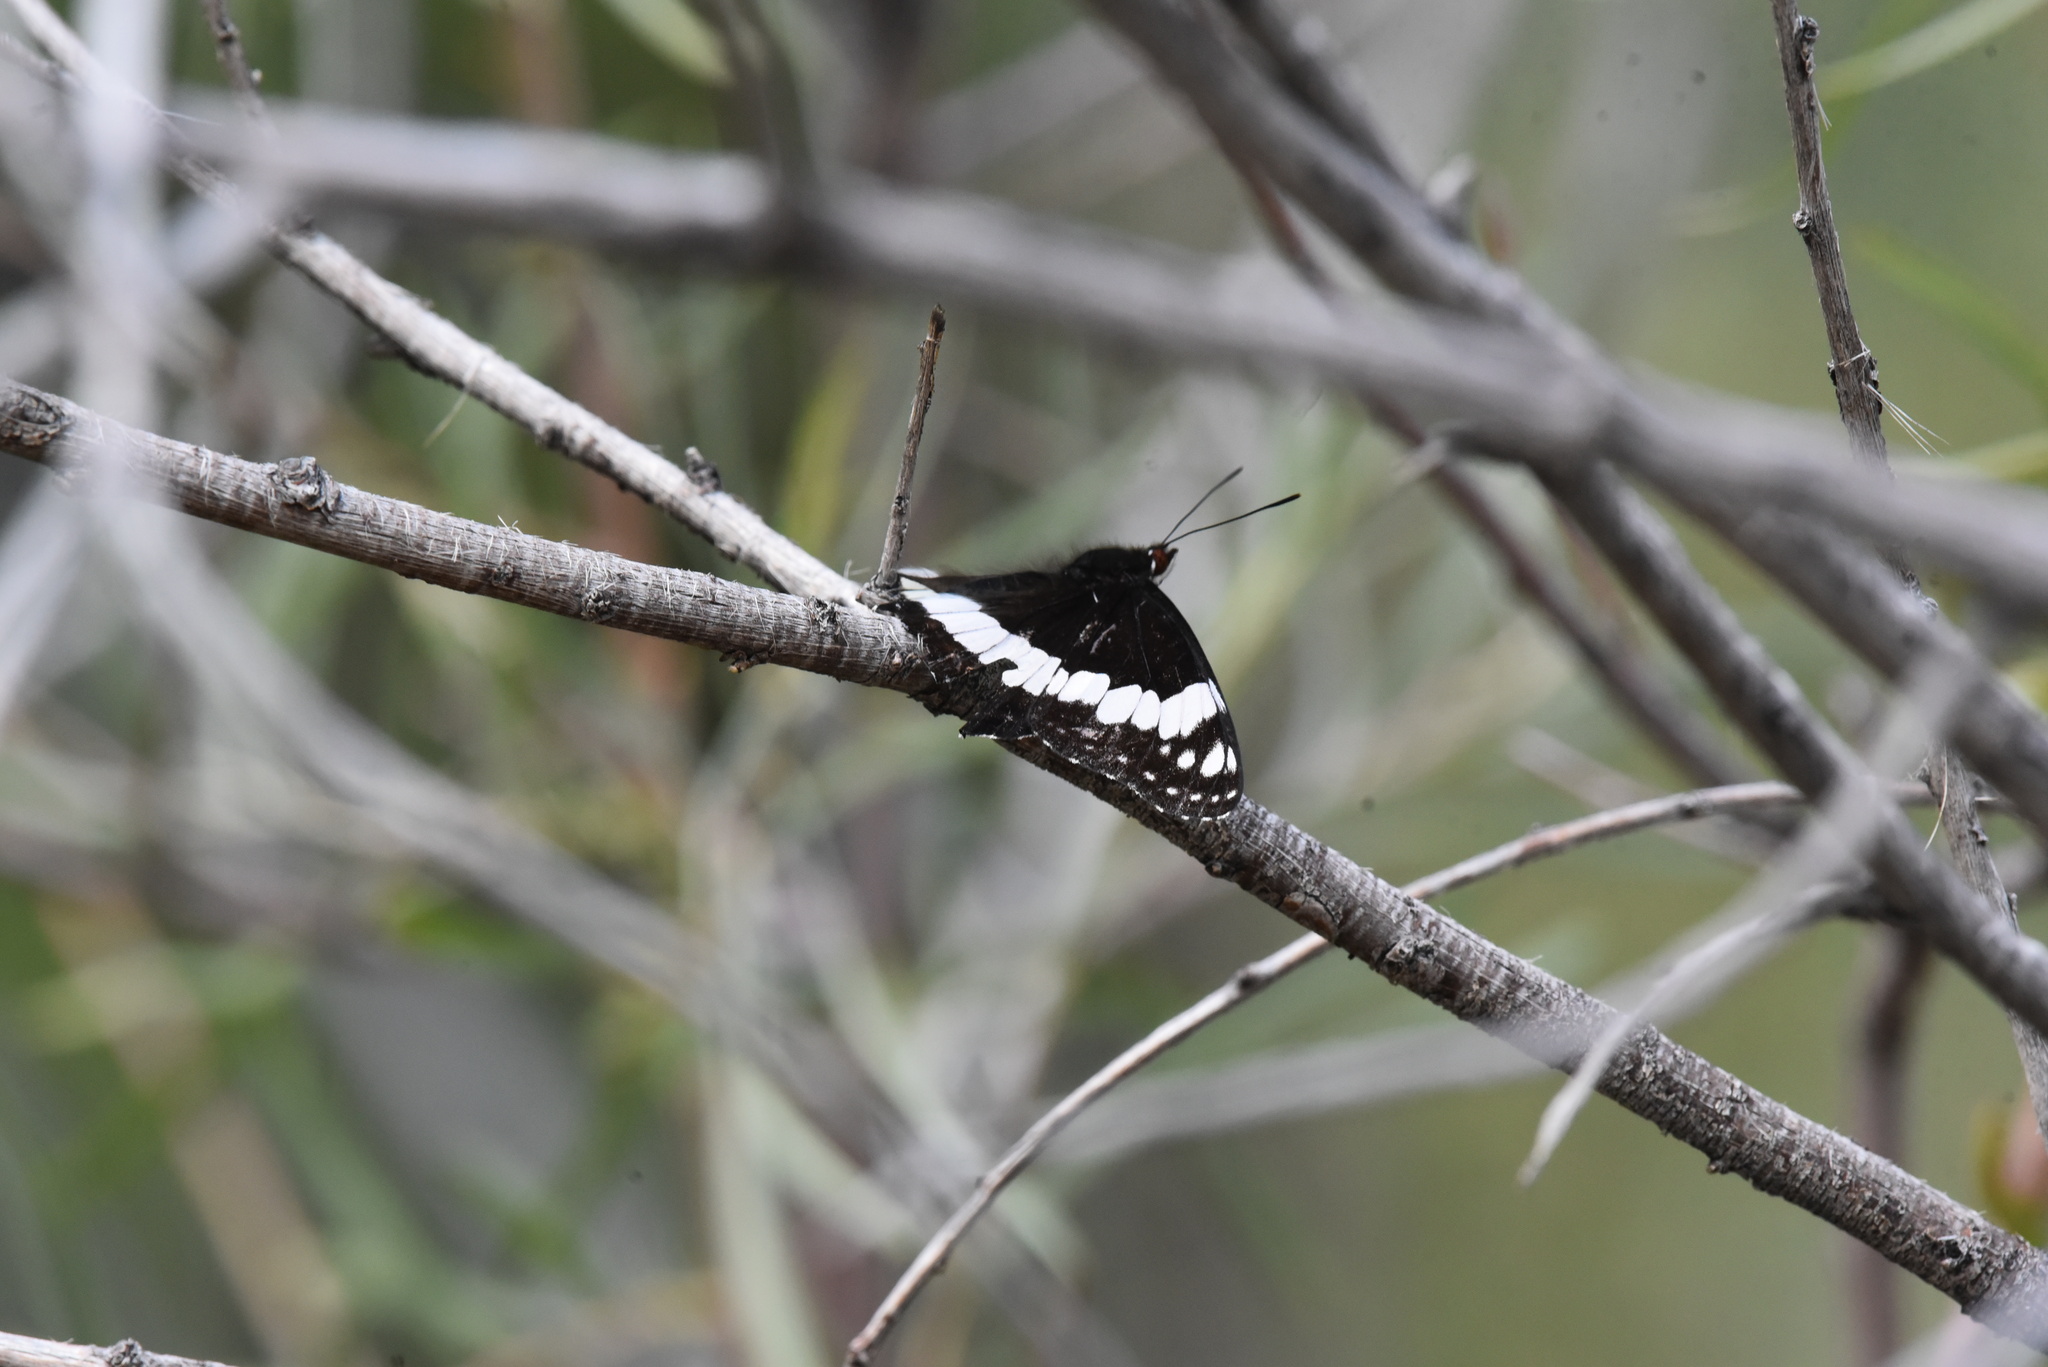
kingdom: Animalia
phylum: Arthropoda
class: Insecta
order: Lepidoptera
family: Nymphalidae
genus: Limenitis
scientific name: Limenitis weidemeyerii
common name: Weidemeyer's admiral
